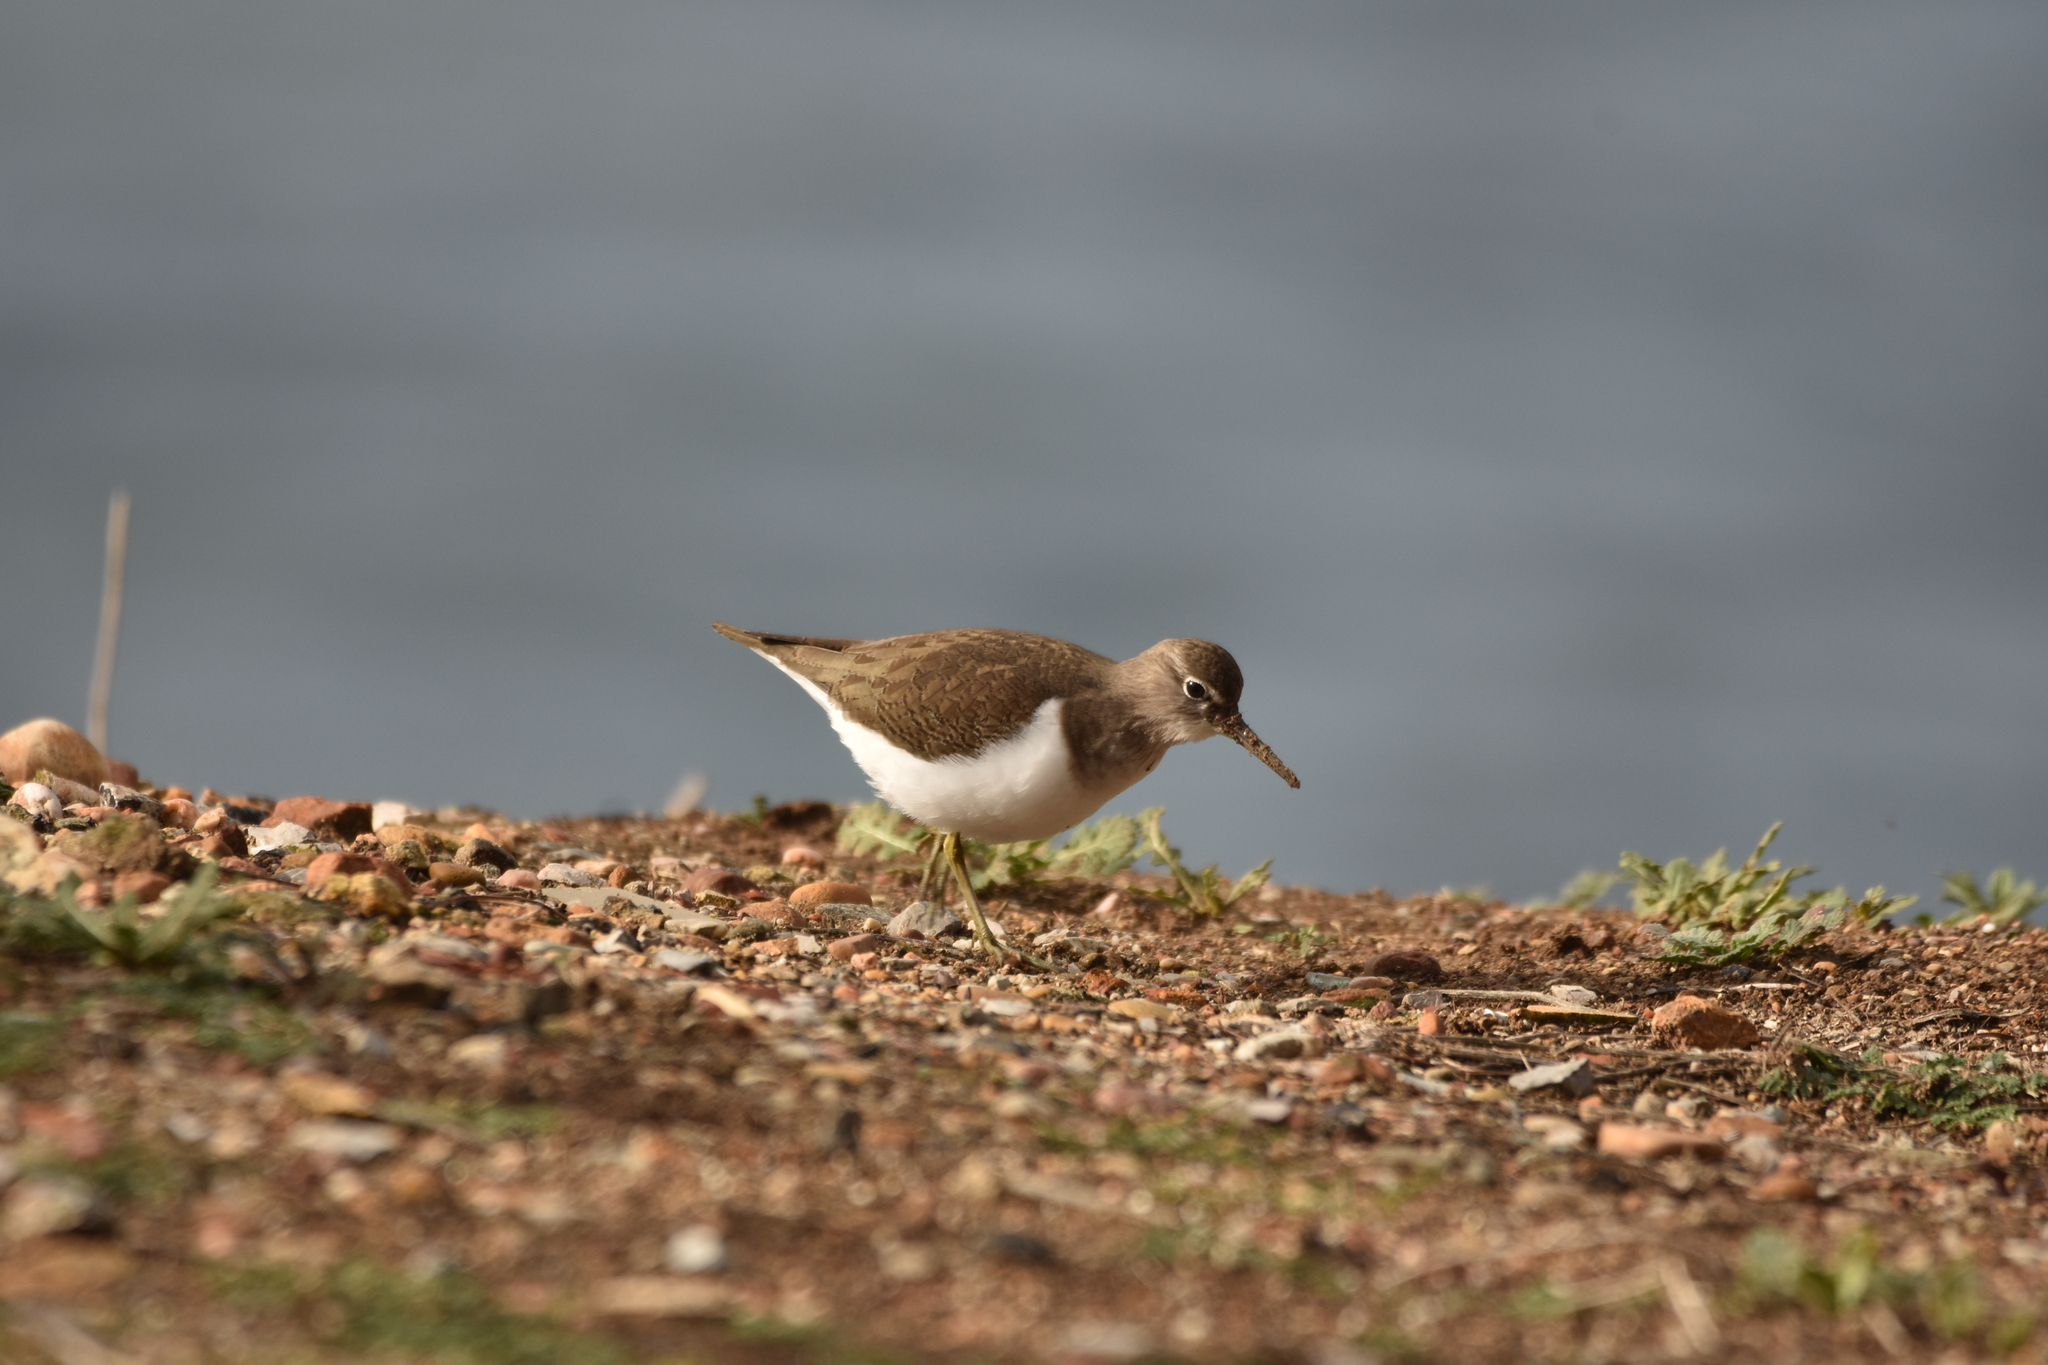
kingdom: Animalia
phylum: Chordata
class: Aves
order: Charadriiformes
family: Scolopacidae
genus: Actitis
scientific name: Actitis hypoleucos
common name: Common sandpiper
